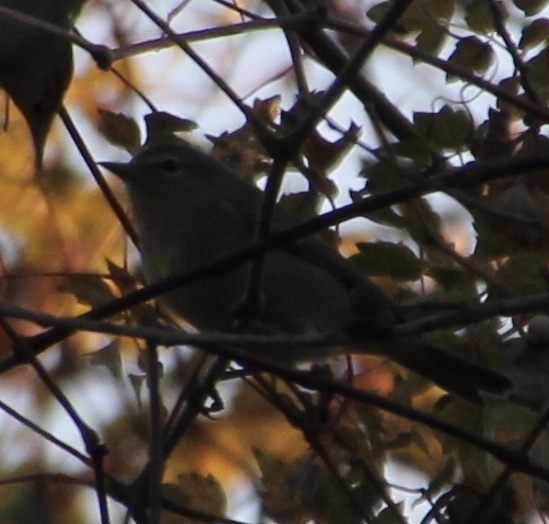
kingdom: Animalia
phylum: Chordata
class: Aves
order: Passeriformes
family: Parulidae
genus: Leiothlypis
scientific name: Leiothlypis celata
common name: Orange-crowned warbler
